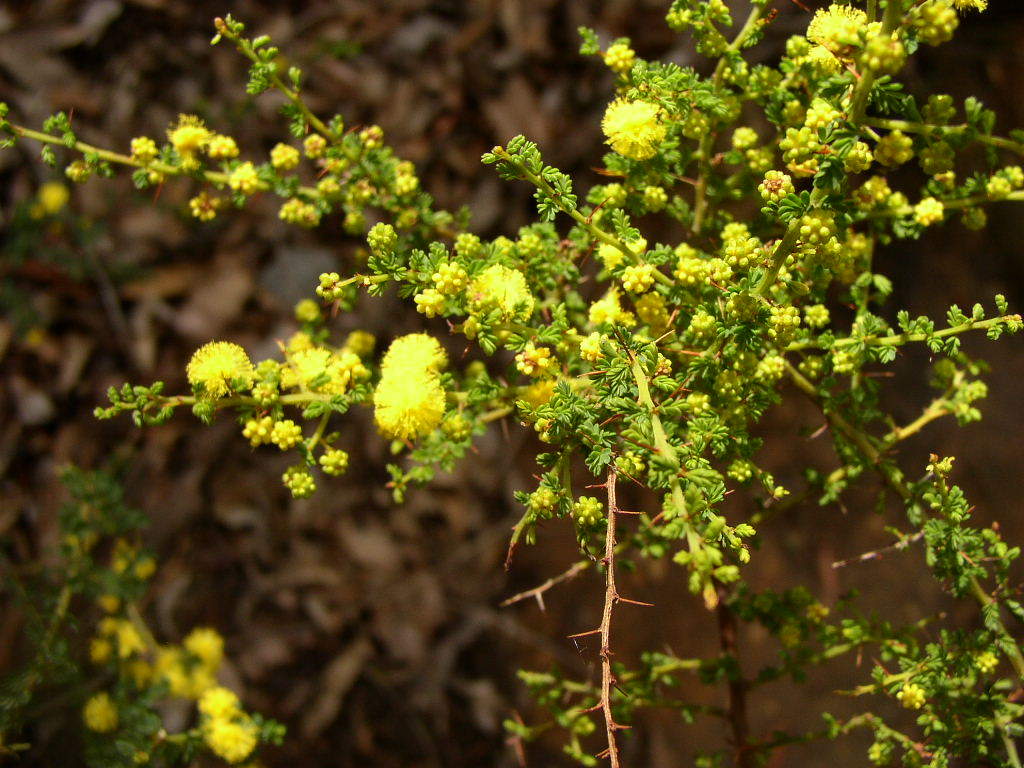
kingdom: Plantae
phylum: Tracheophyta
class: Magnoliopsida
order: Fabales
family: Fabaceae
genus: Acacia
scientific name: Acacia pulchella
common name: Prickly moses
